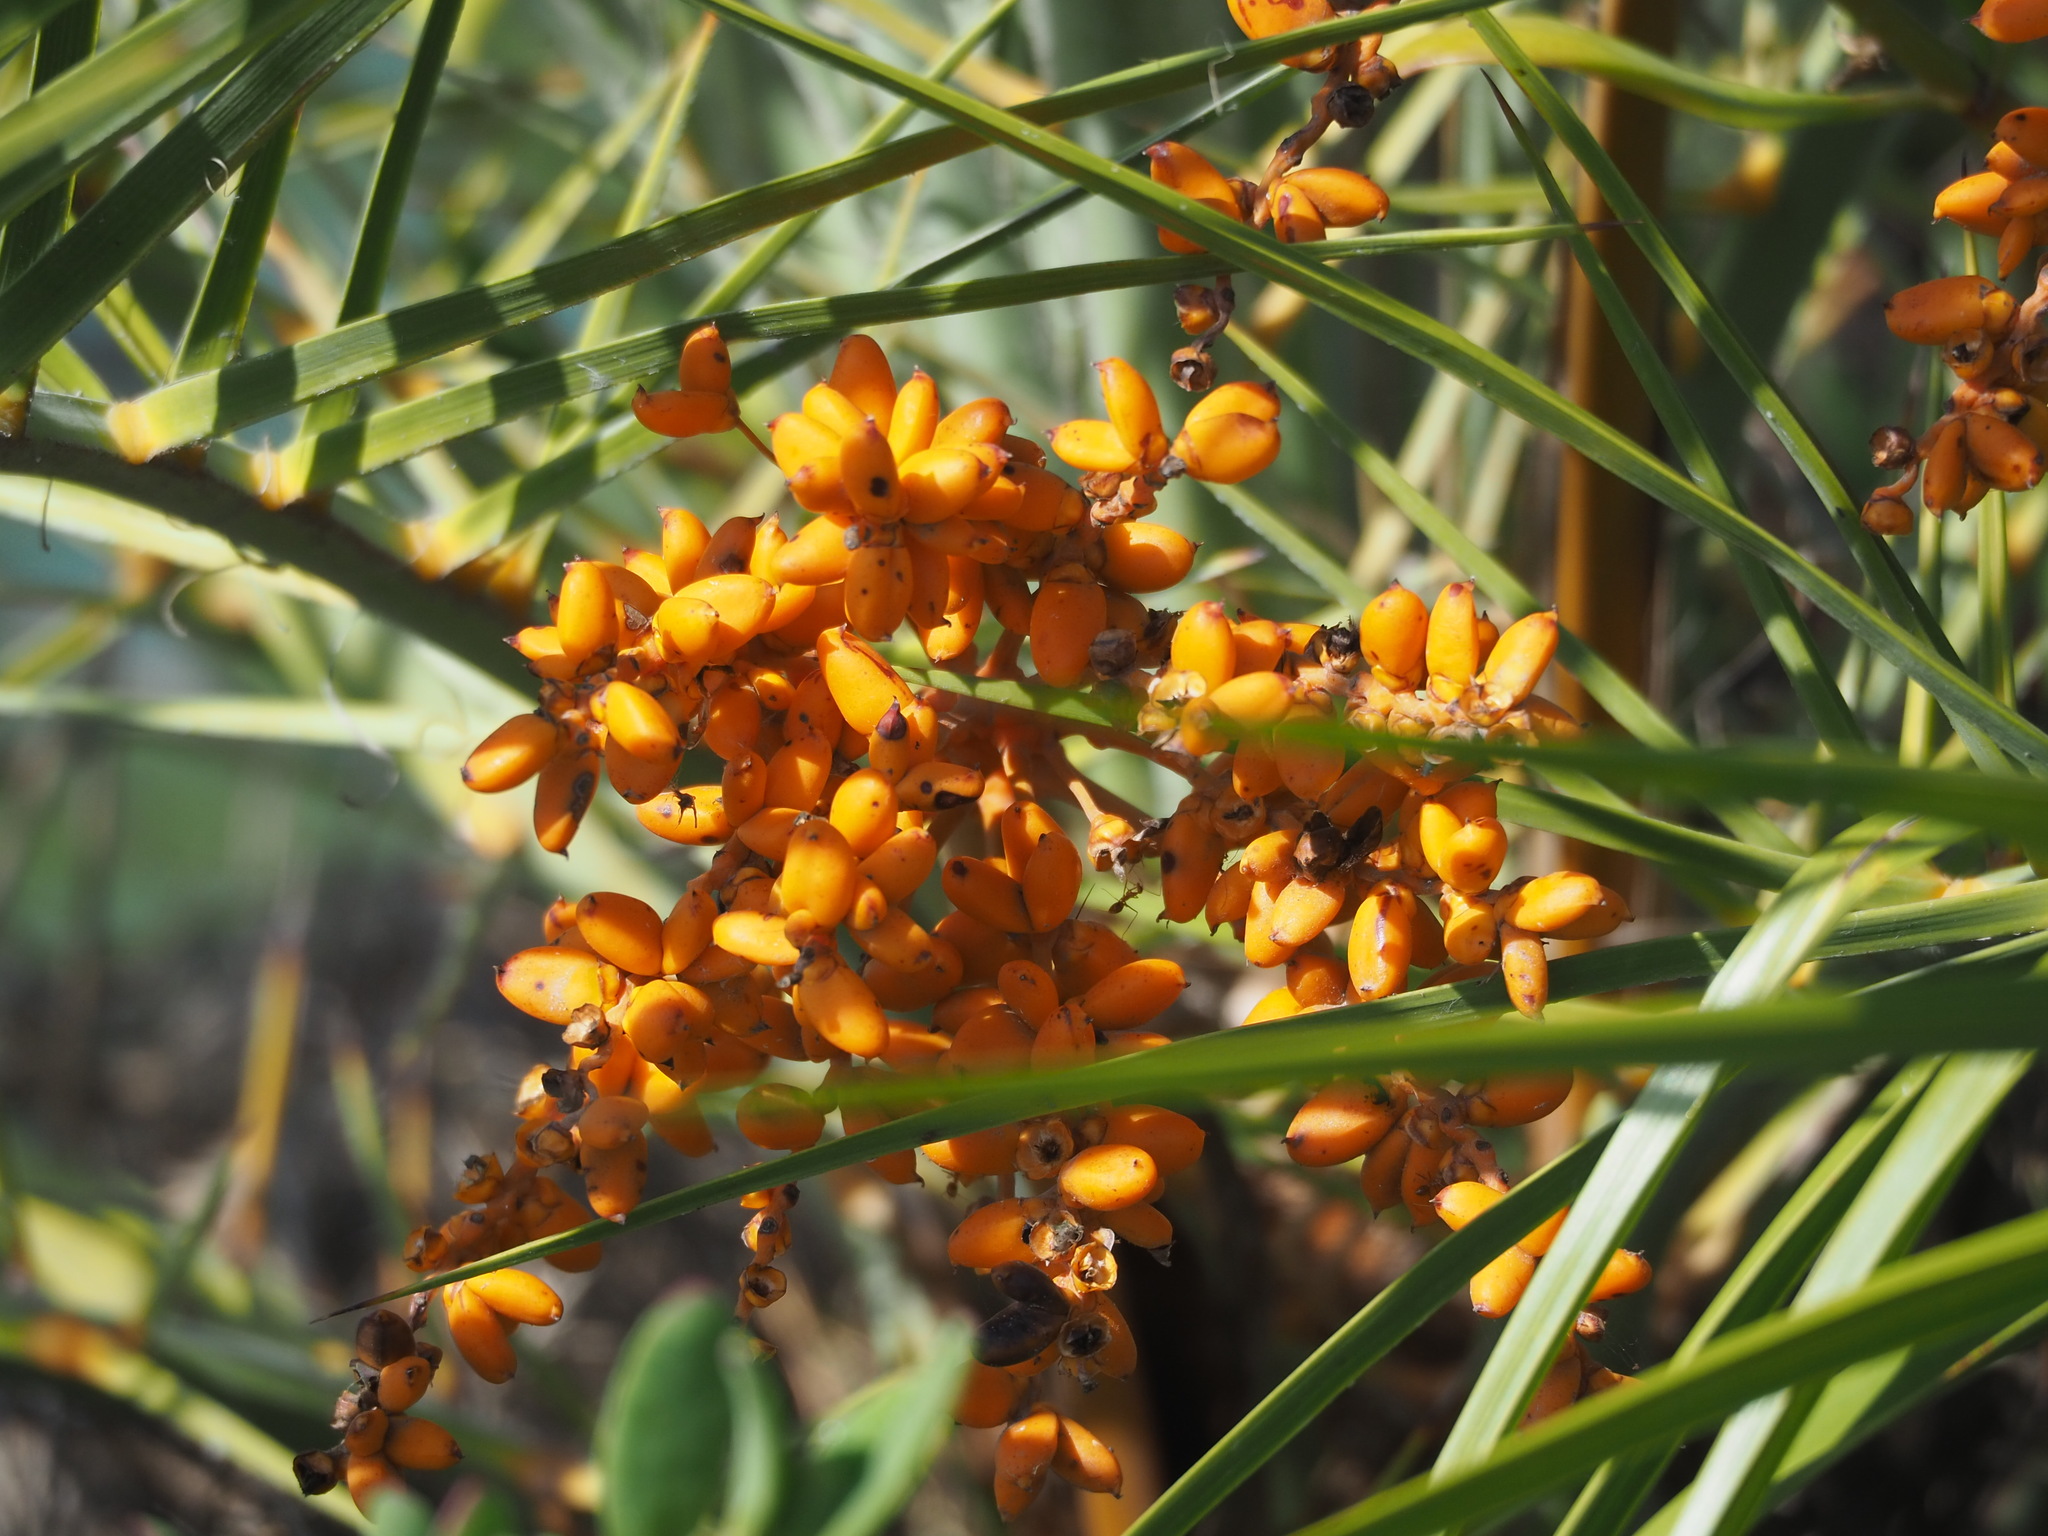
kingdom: Plantae
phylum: Tracheophyta
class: Liliopsida
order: Arecales
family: Arecaceae
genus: Phoenix
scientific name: Phoenix loureiroi
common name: Loureiro's palm
